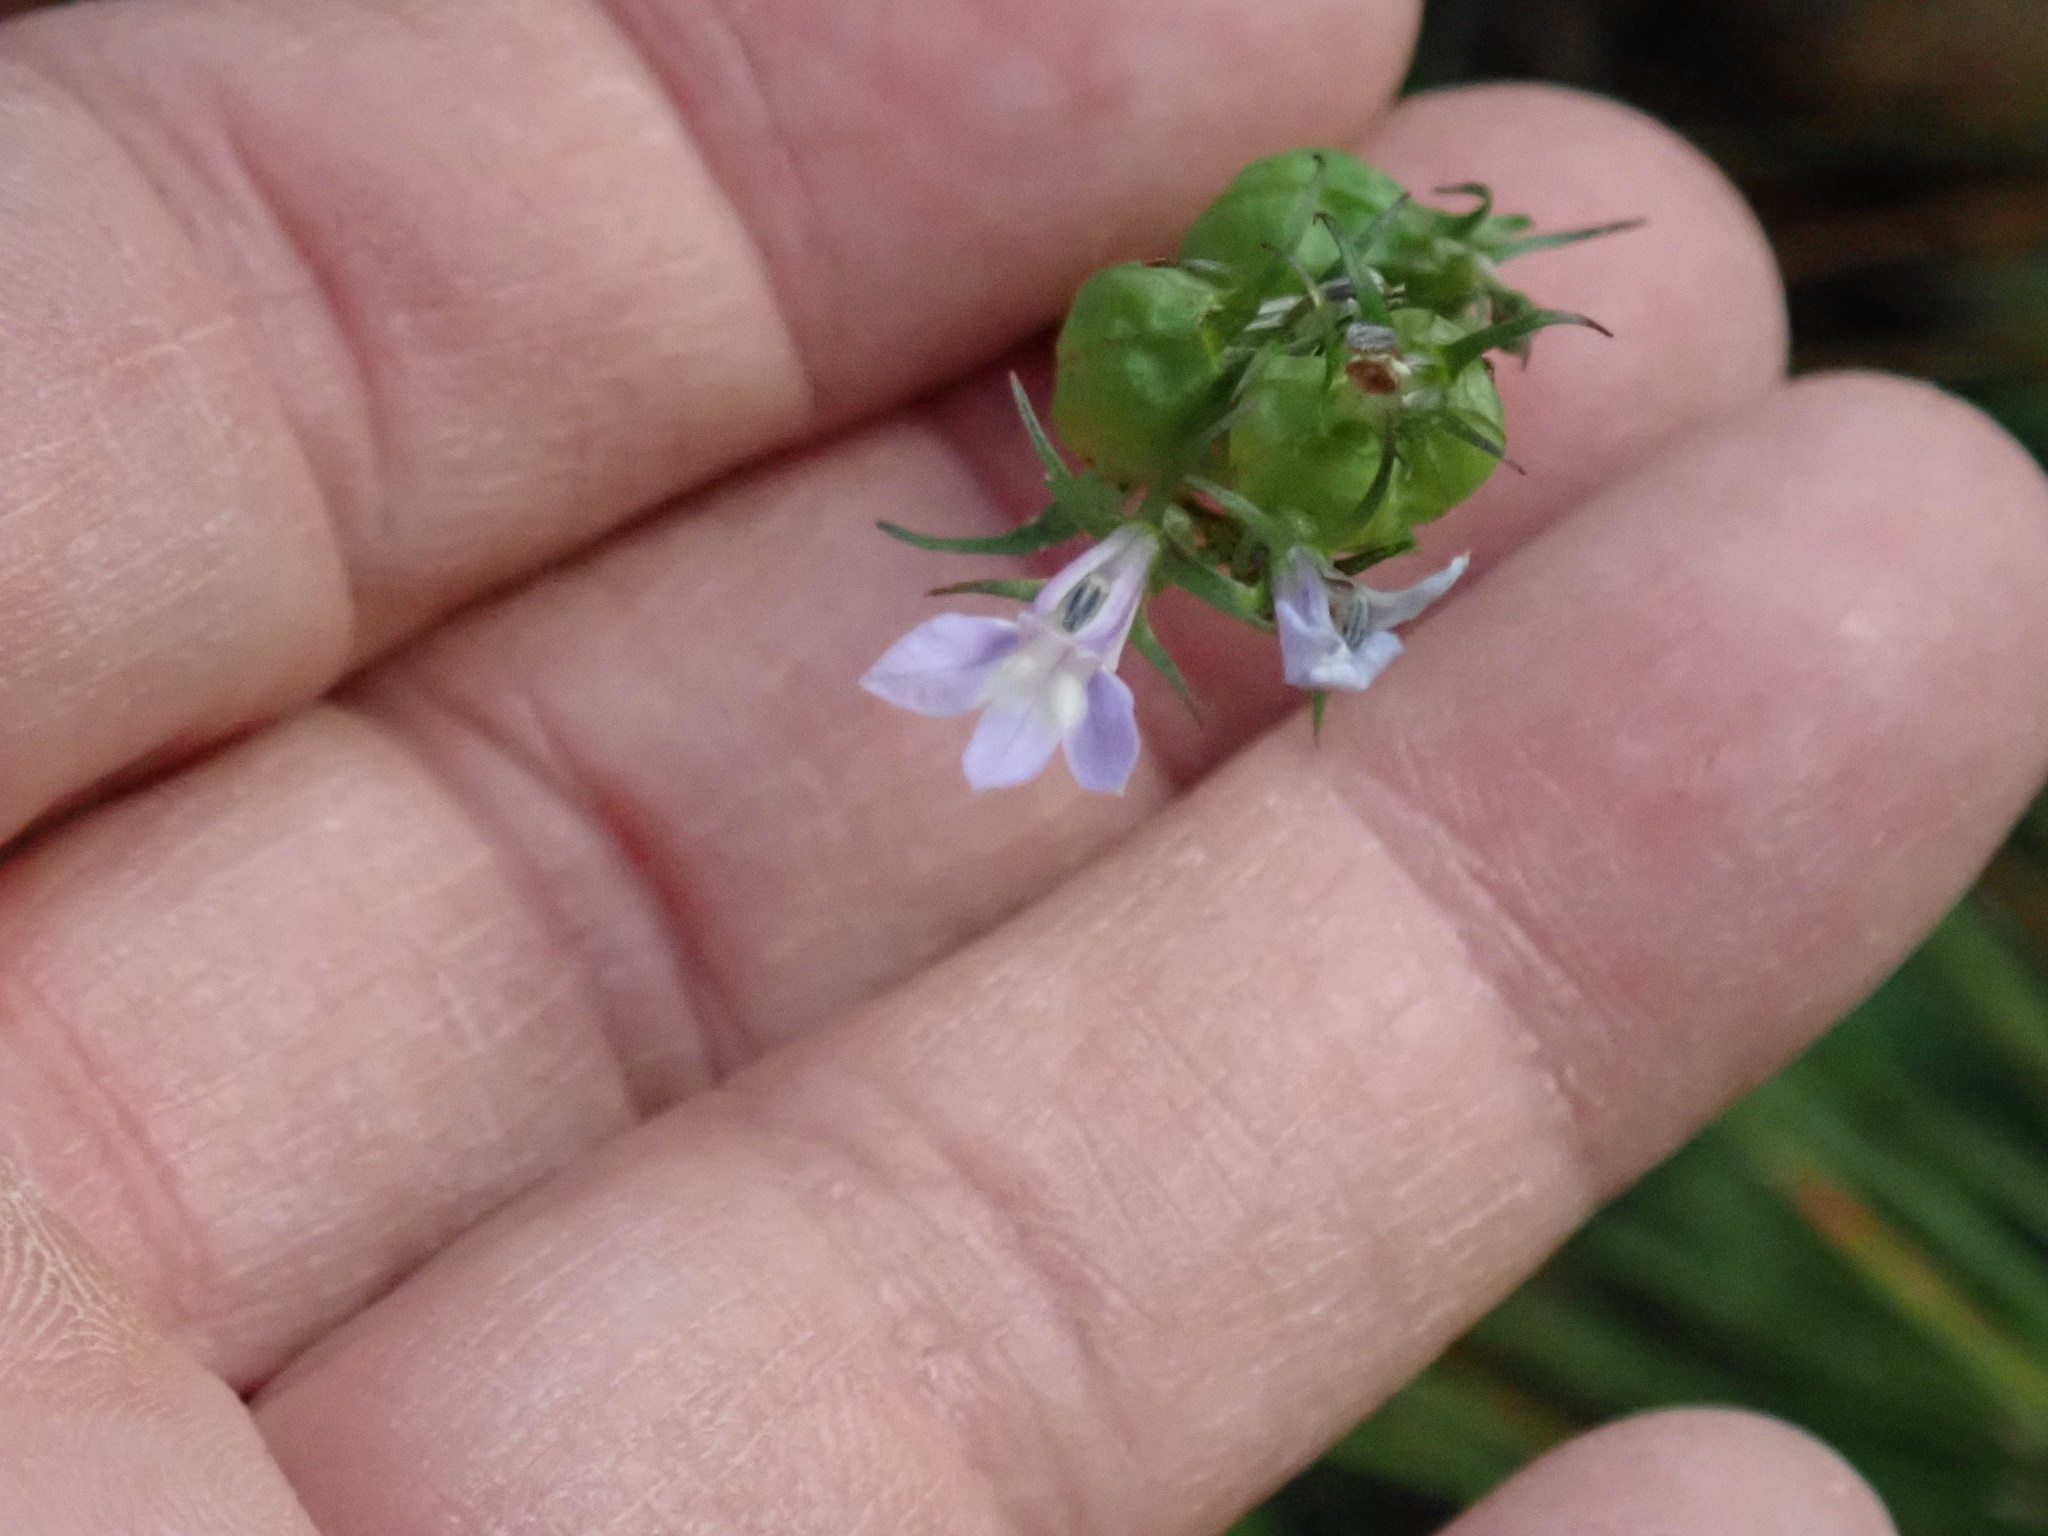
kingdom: Plantae
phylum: Tracheophyta
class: Magnoliopsida
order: Asterales
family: Campanulaceae
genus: Lobelia
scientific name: Lobelia inflata
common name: Indian tobacco
